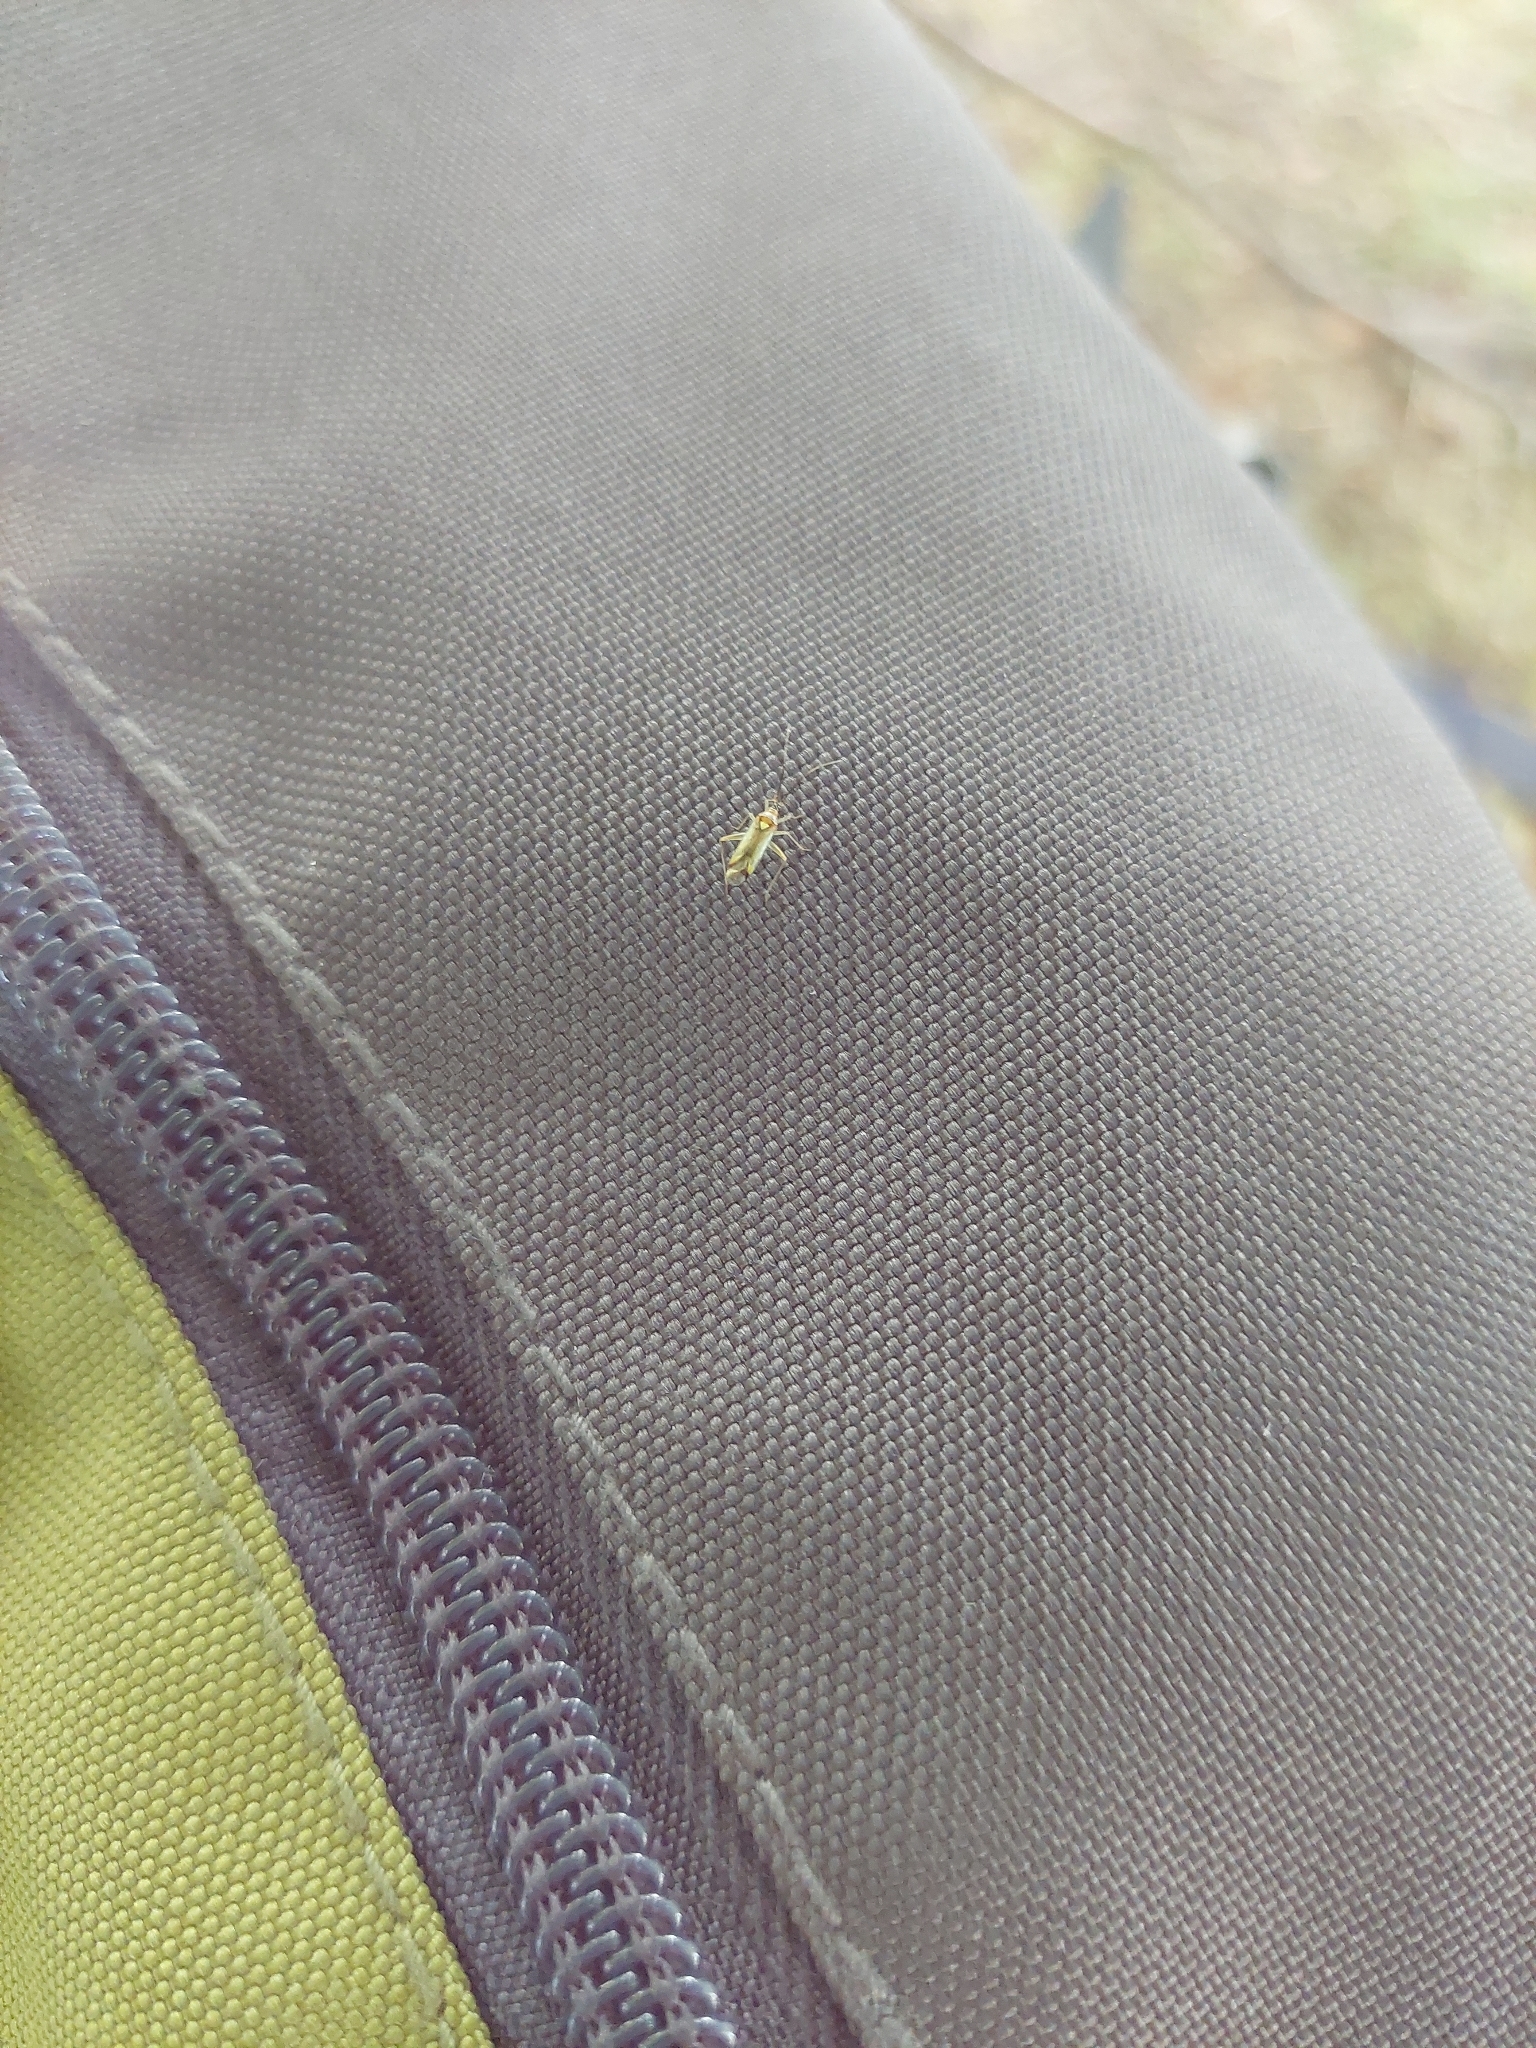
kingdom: Animalia
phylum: Arthropoda
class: Insecta
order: Hemiptera
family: Miridae
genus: Campyloneura
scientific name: Campyloneura virgula
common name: Predatory bug
